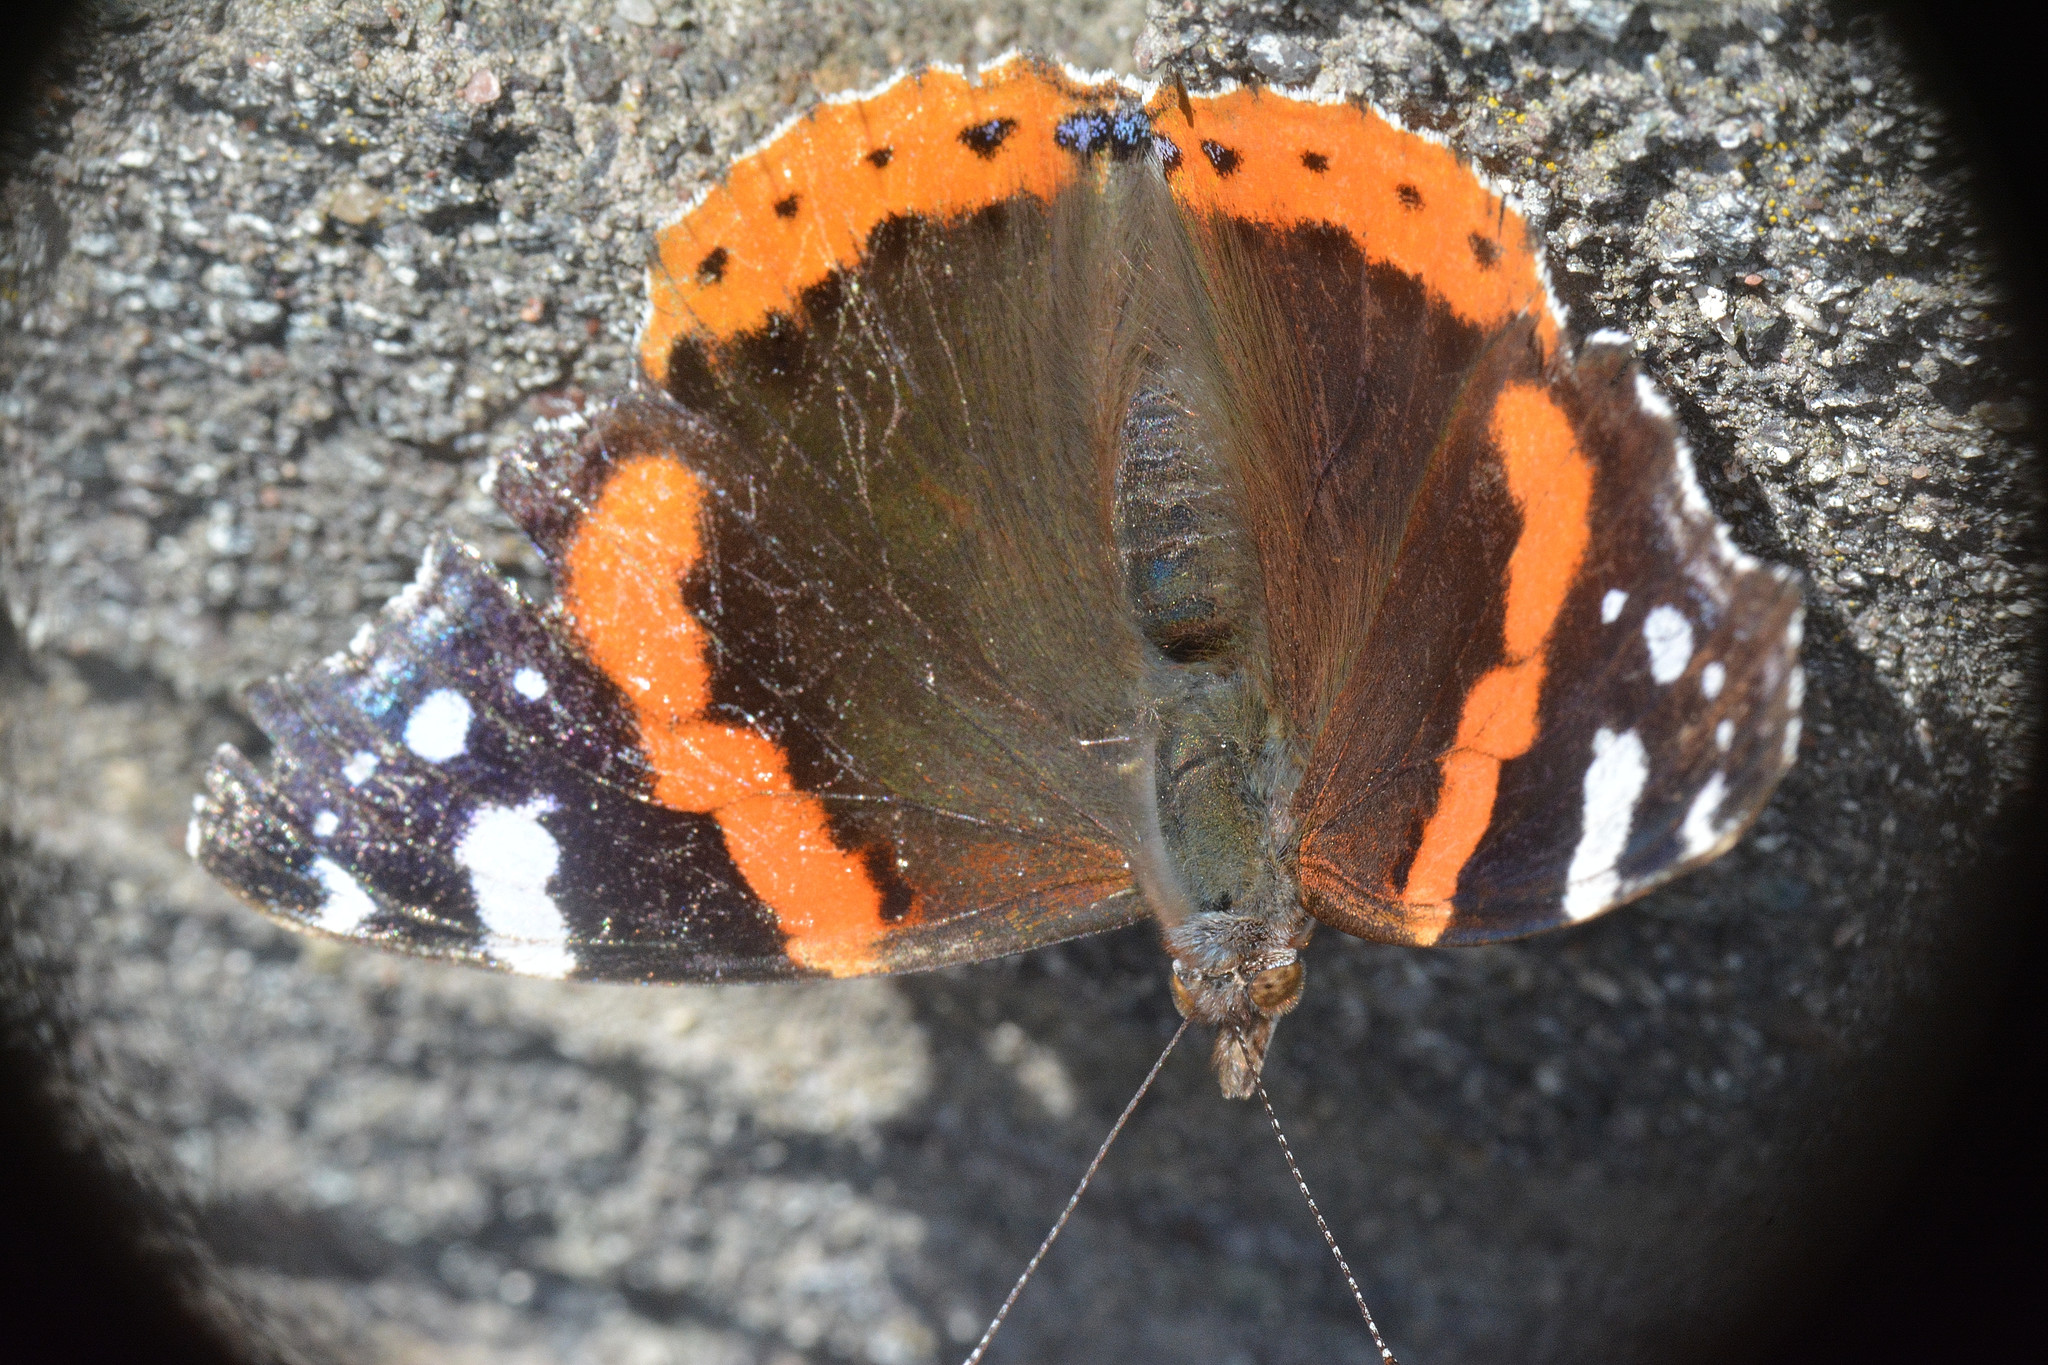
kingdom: Animalia
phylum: Arthropoda
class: Insecta
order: Lepidoptera
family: Nymphalidae
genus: Vanessa
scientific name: Vanessa atalanta
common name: Red admiral
